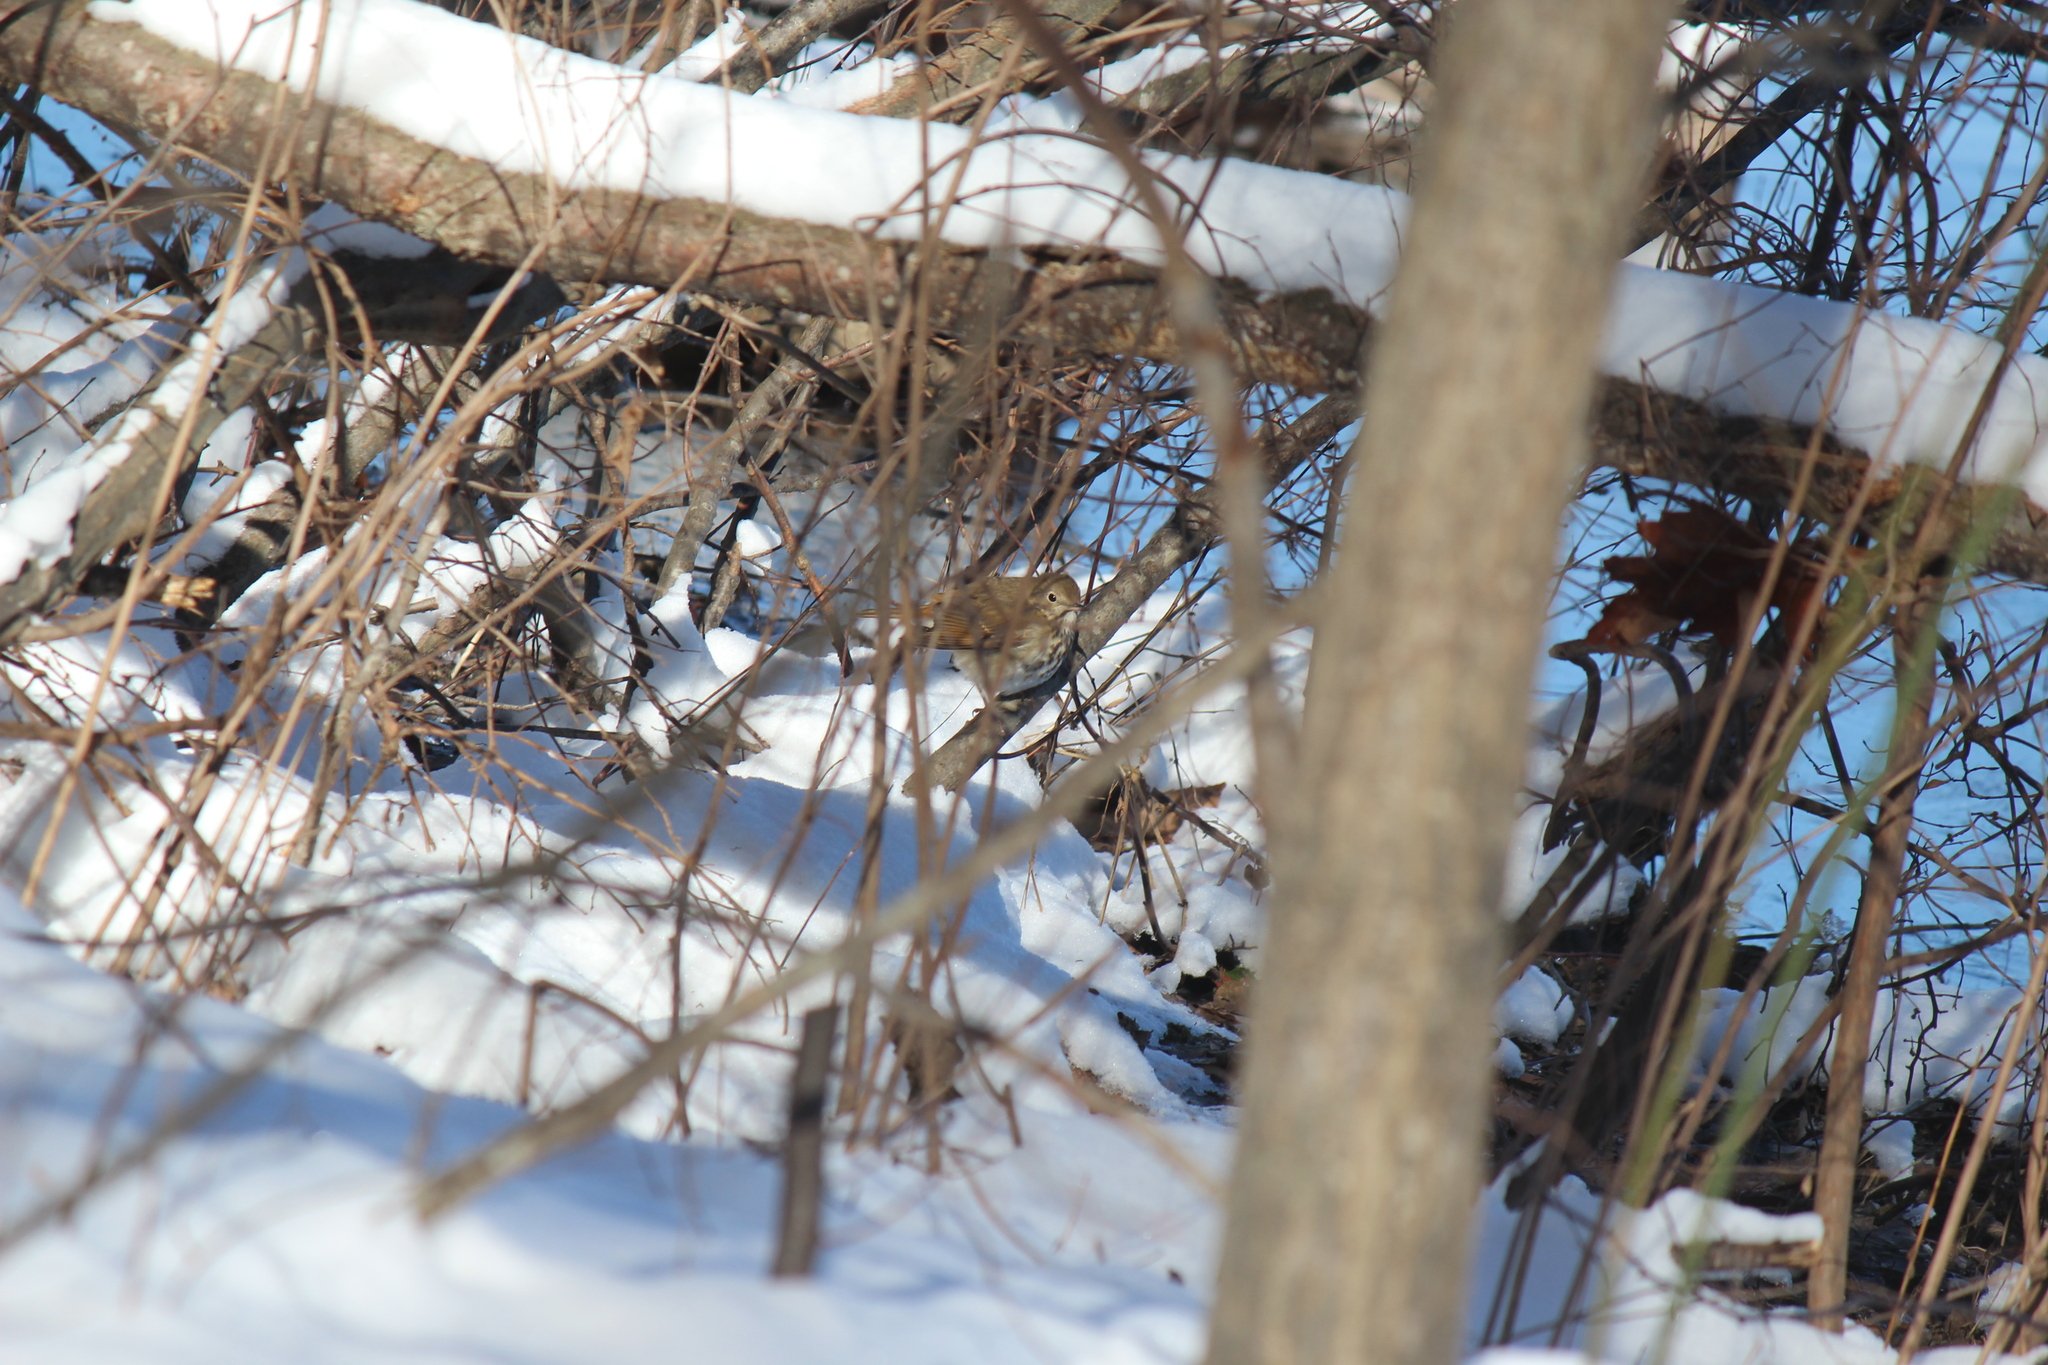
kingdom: Animalia
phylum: Chordata
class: Aves
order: Passeriformes
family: Turdidae
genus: Catharus
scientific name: Catharus guttatus
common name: Hermit thrush
